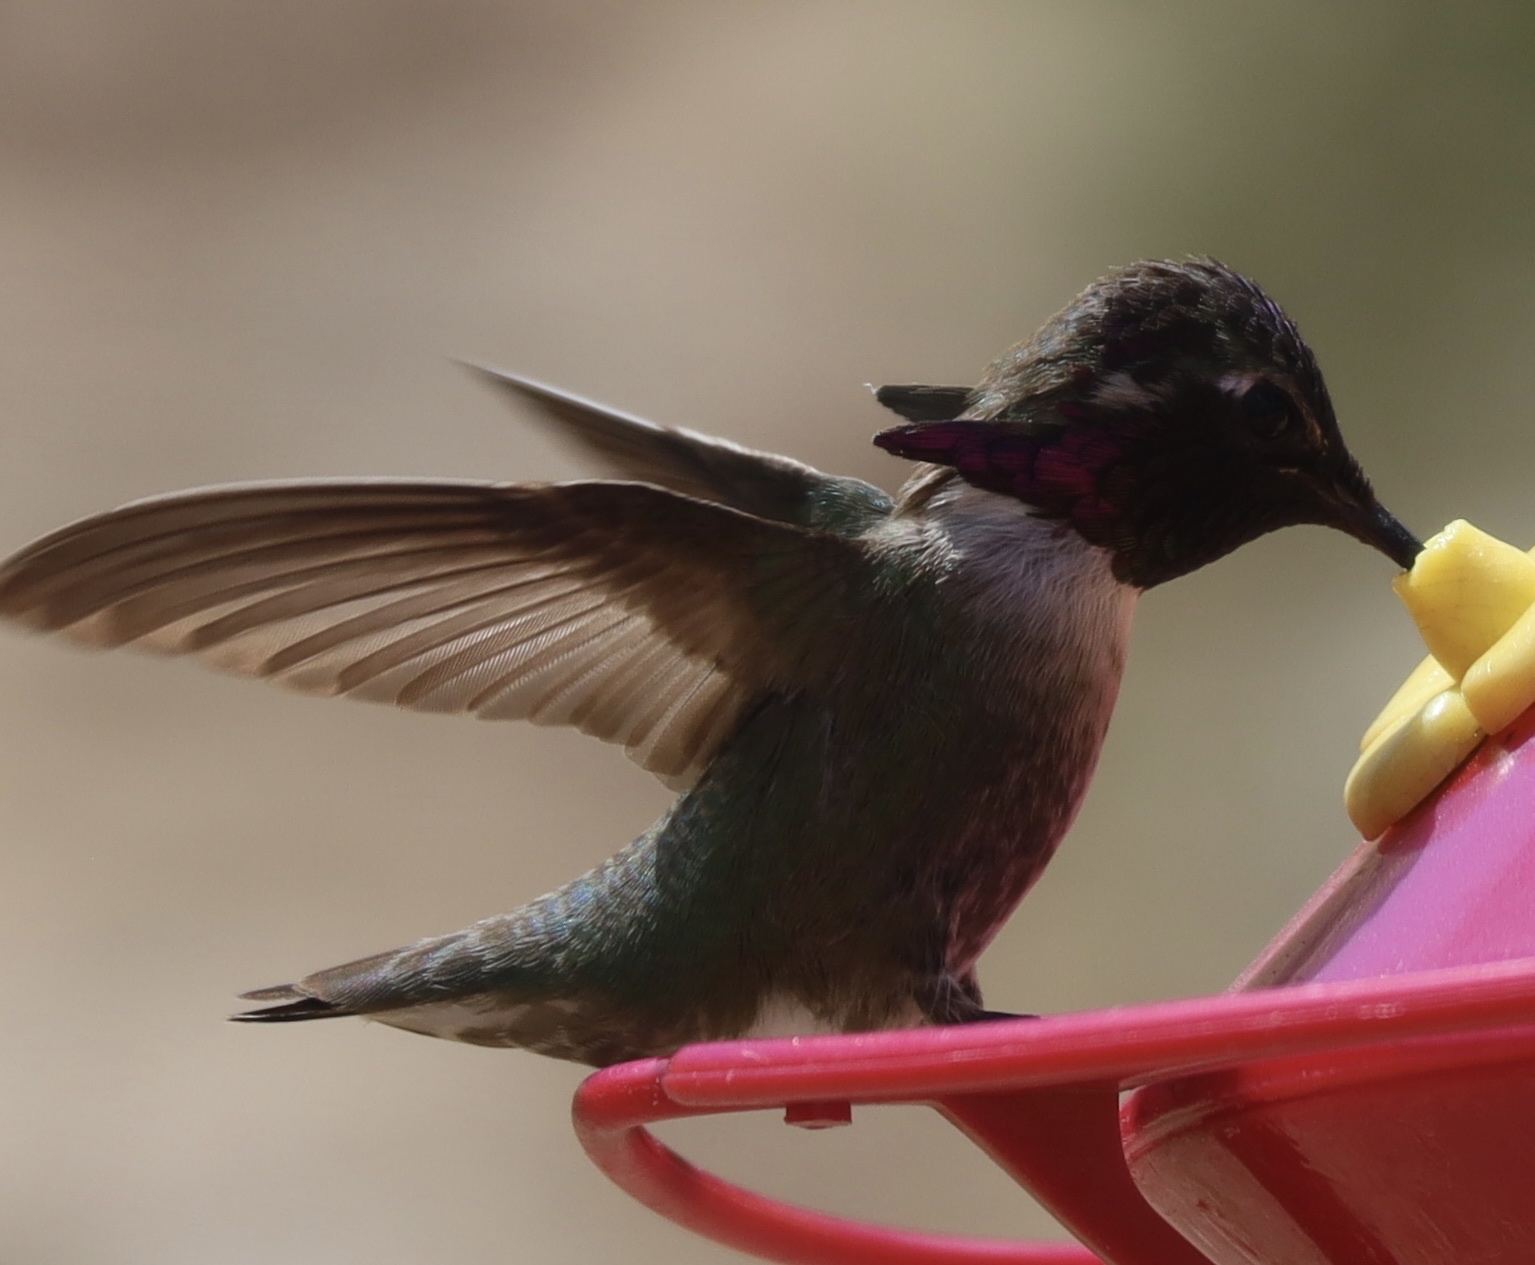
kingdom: Animalia
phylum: Chordata
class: Aves
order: Apodiformes
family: Trochilidae
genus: Calypte
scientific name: Calypte costae
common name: Costa's hummingbird
